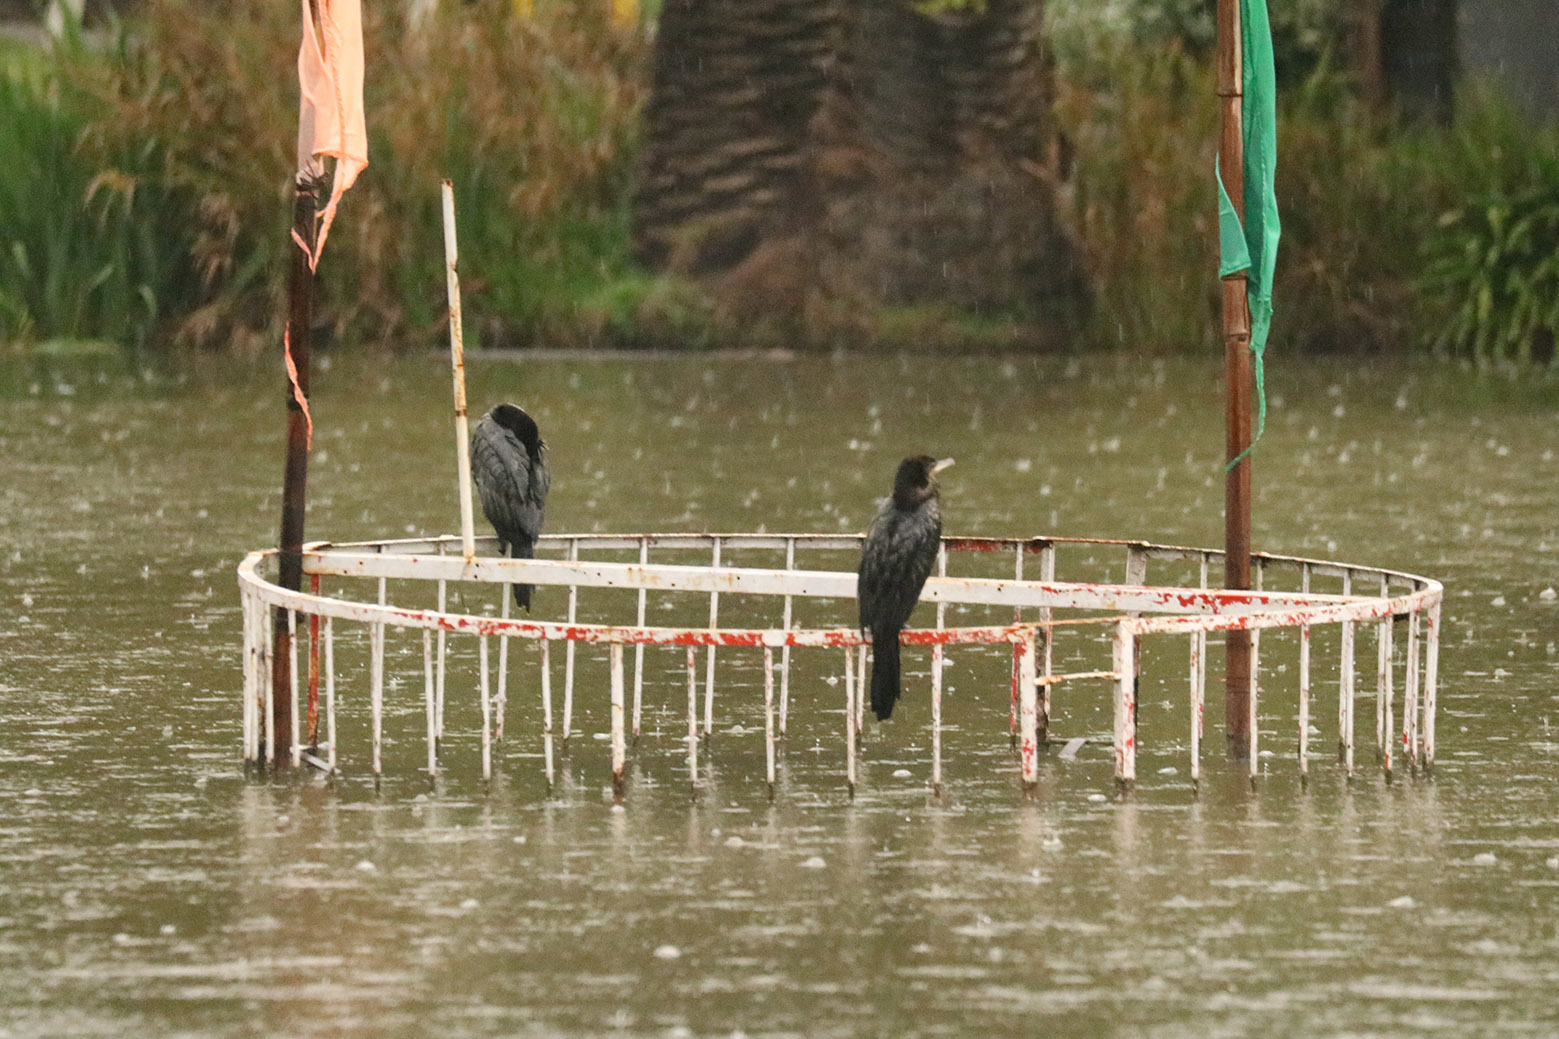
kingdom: Animalia
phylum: Chordata
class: Aves
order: Suliformes
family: Phalacrocoracidae
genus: Phalacrocorax
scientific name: Phalacrocorax brasilianus
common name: Neotropic cormorant
